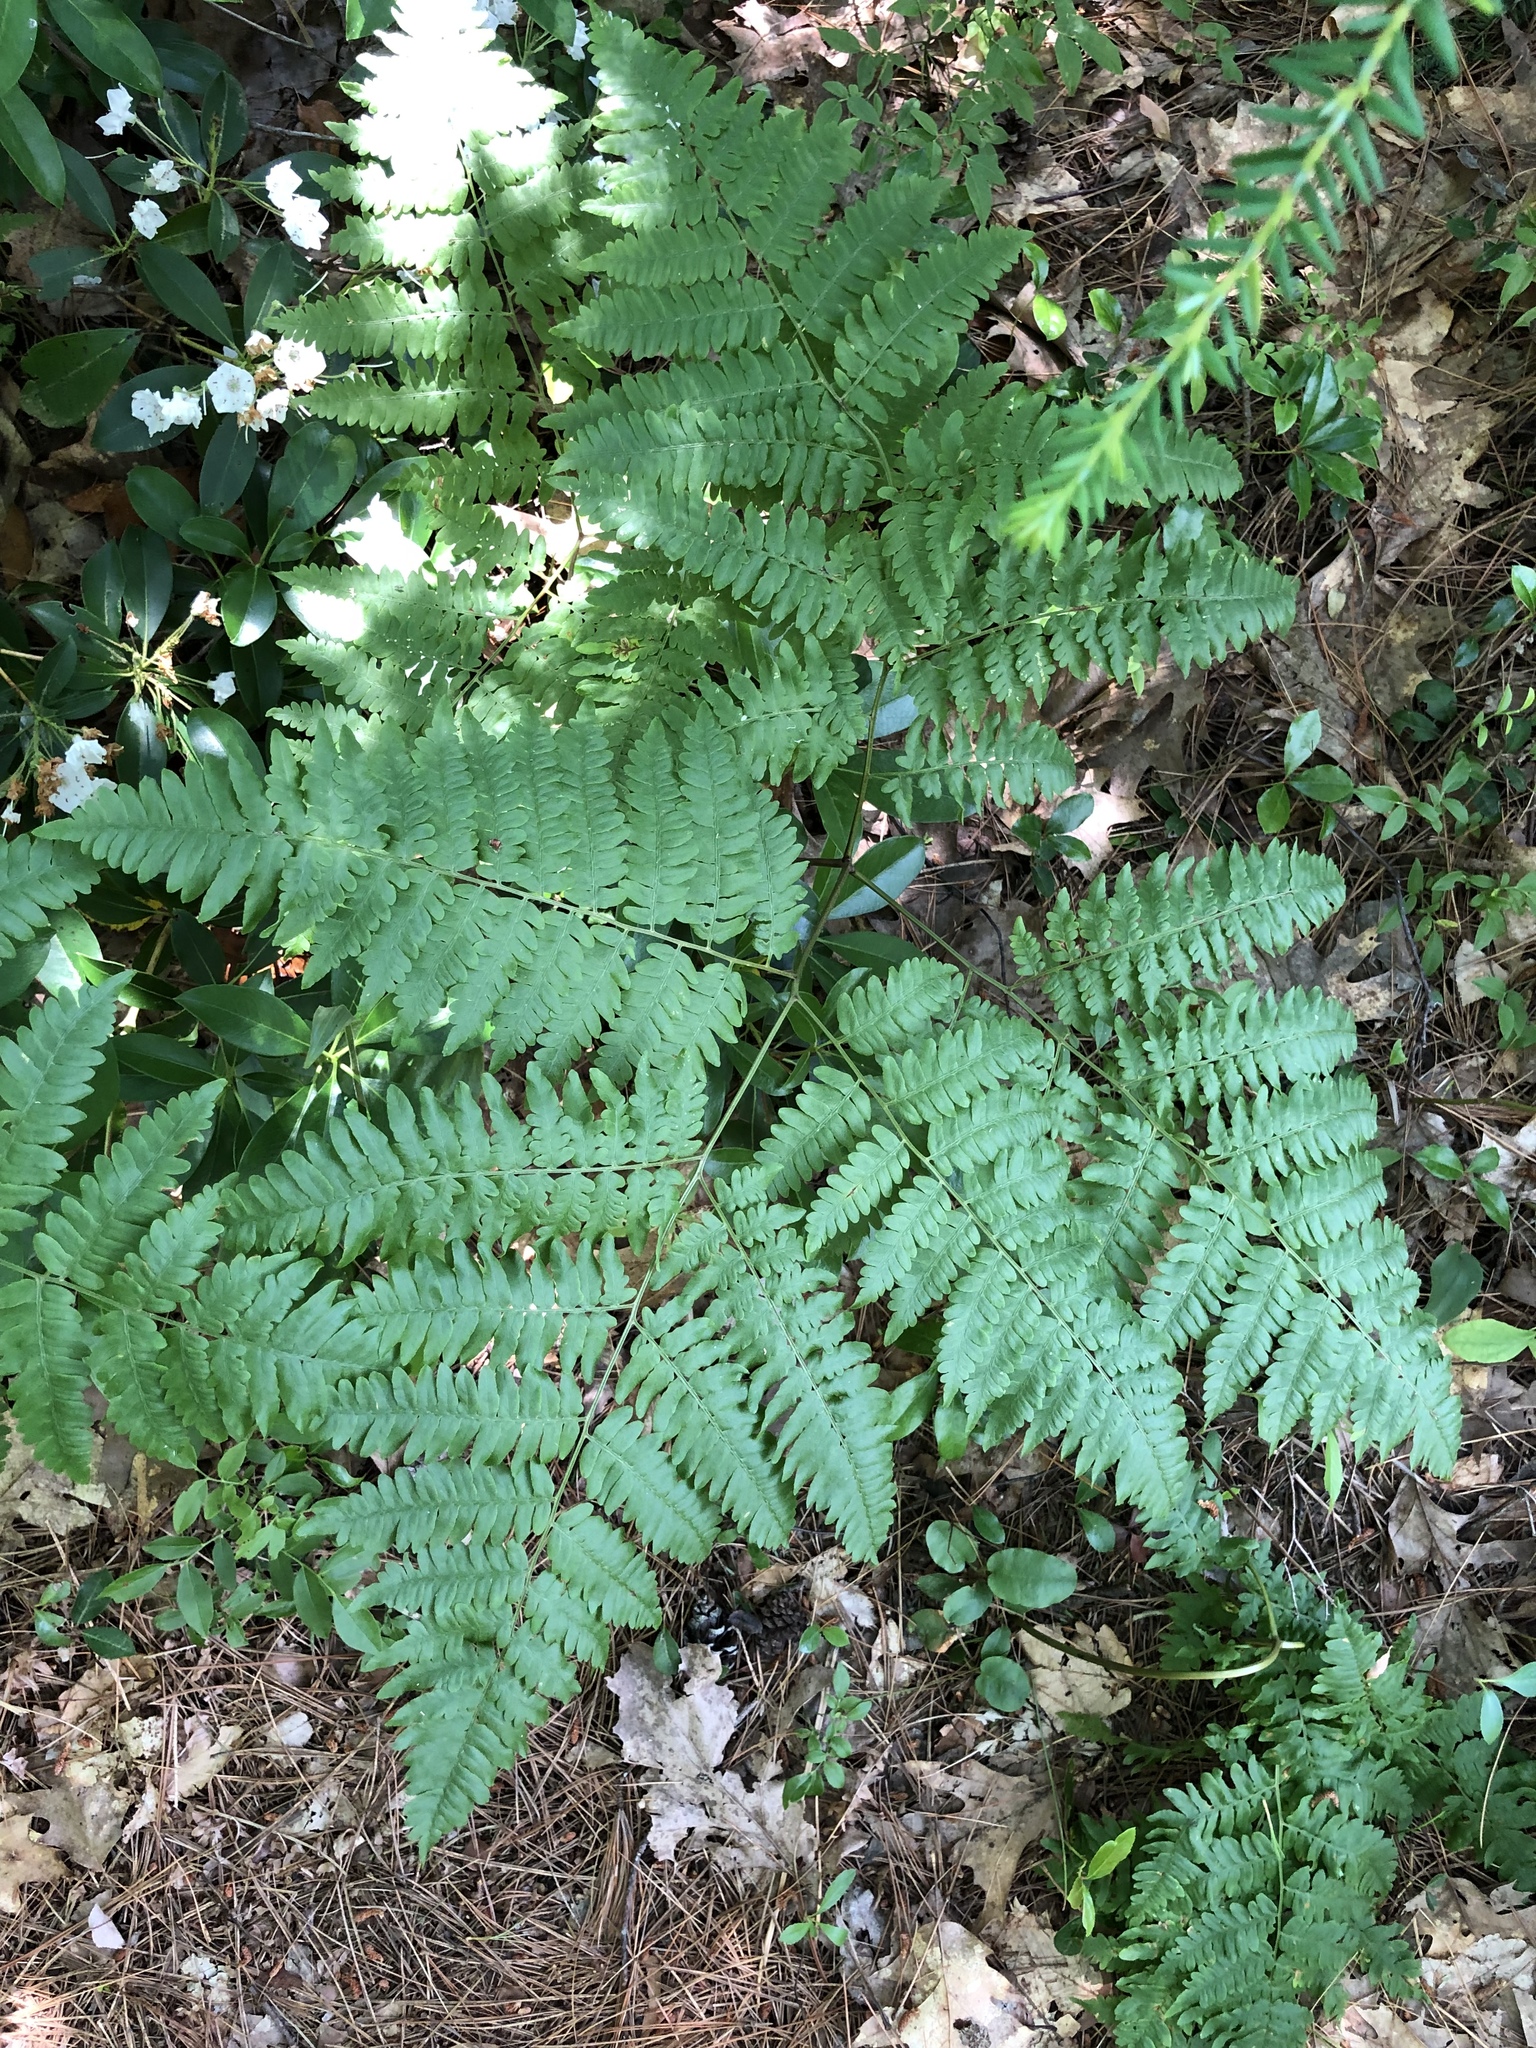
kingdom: Plantae
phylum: Tracheophyta
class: Polypodiopsida
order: Polypodiales
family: Dennstaedtiaceae
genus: Pteridium
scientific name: Pteridium aquilinum
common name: Bracken
